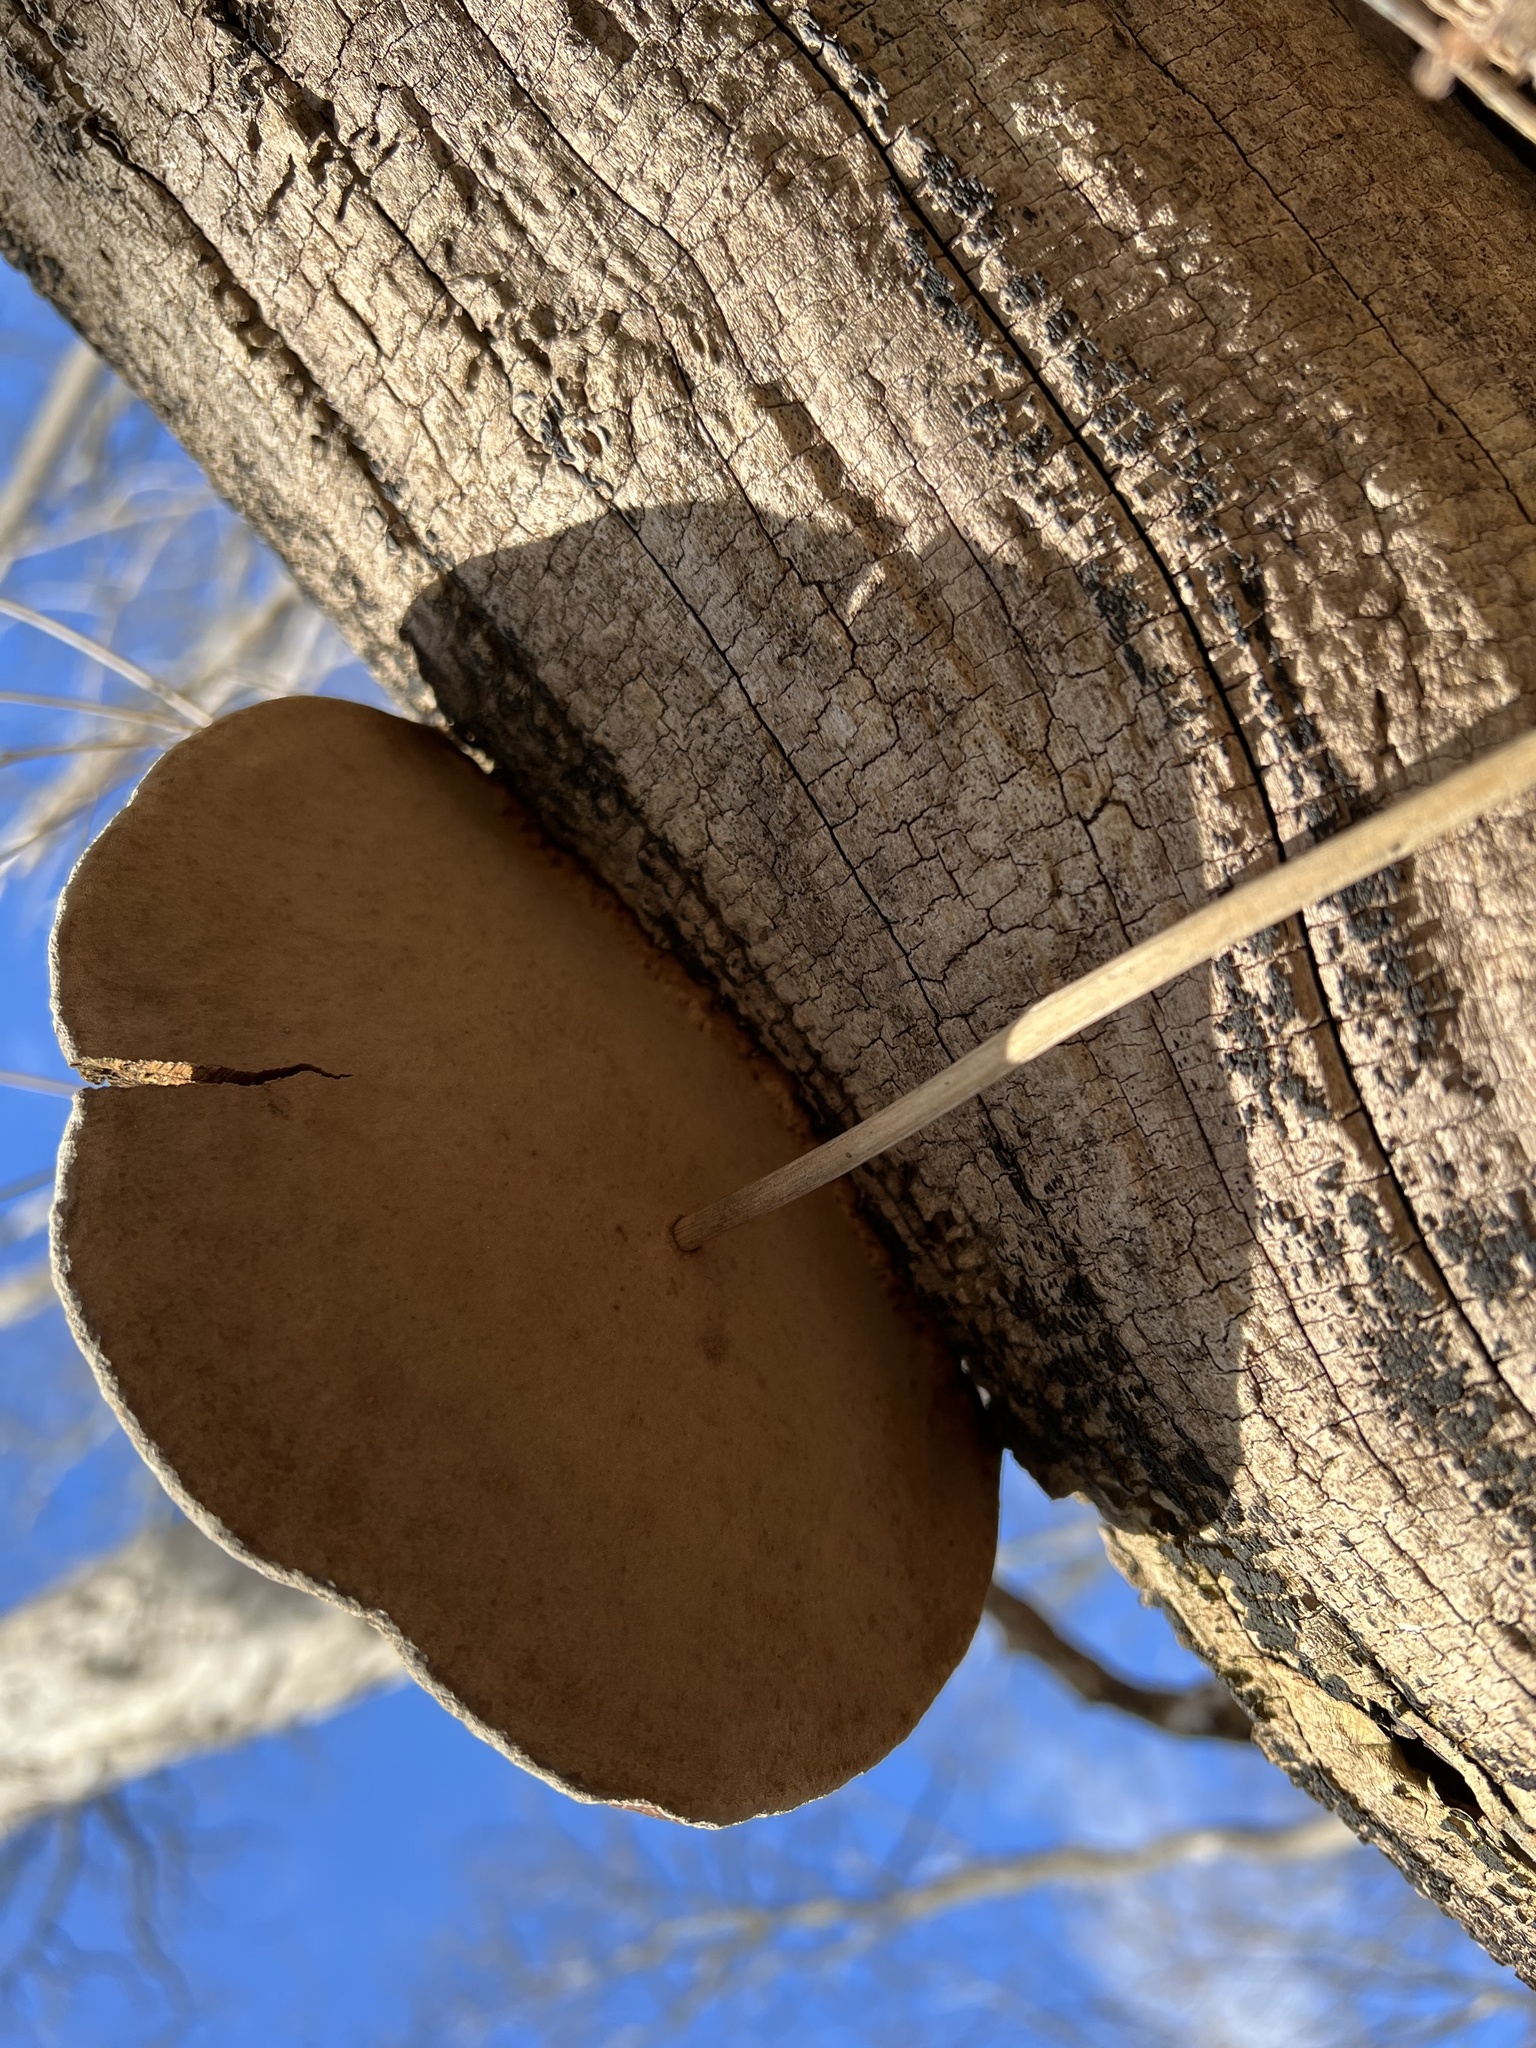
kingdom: Fungi
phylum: Basidiomycota
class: Agaricomycetes
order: Hymenochaetales
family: Hymenochaetaceae
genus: Phellinus
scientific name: Phellinus robiniae
